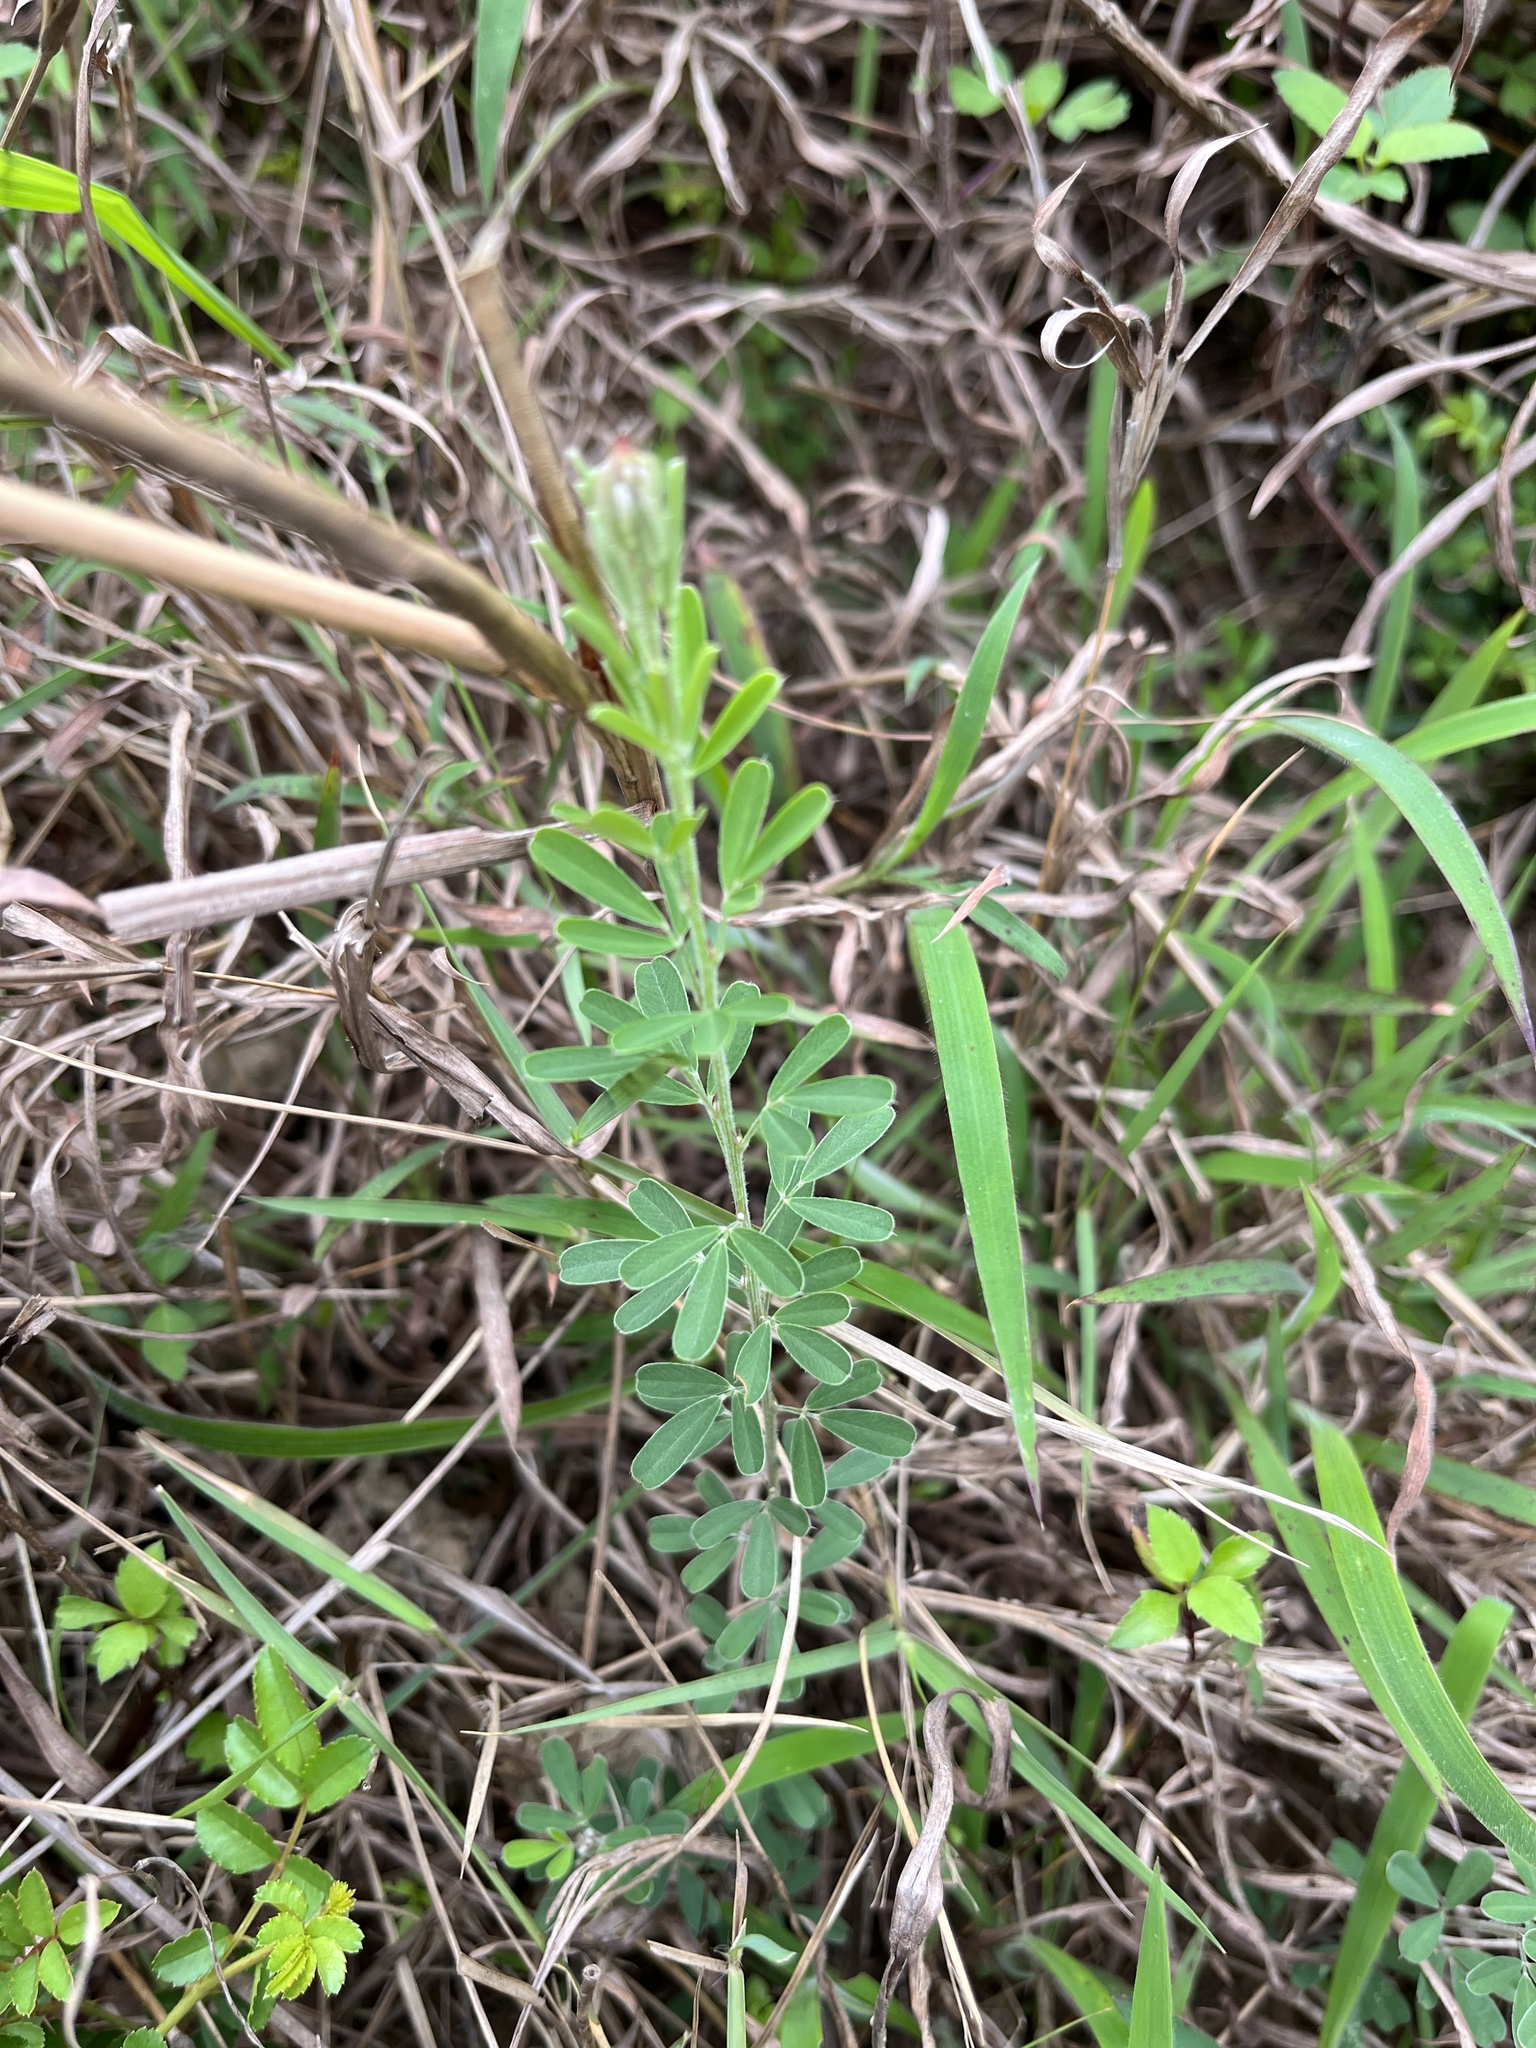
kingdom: Plantae
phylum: Tracheophyta
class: Magnoliopsida
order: Fabales
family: Fabaceae
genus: Lespedeza
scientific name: Lespedeza cuneata
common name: Chinese bush-clover
